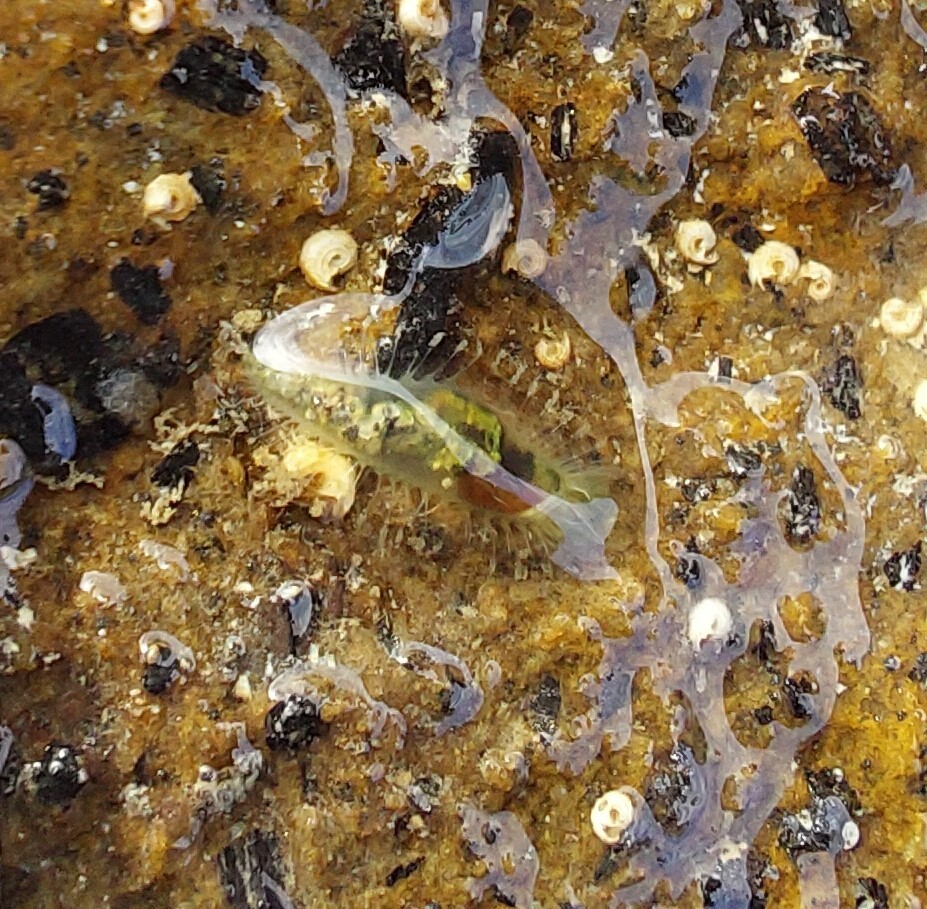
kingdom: Animalia
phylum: Annelida
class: Polychaeta
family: Flabelligeridae
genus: Flabelligera
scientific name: Flabelligera bicolor
